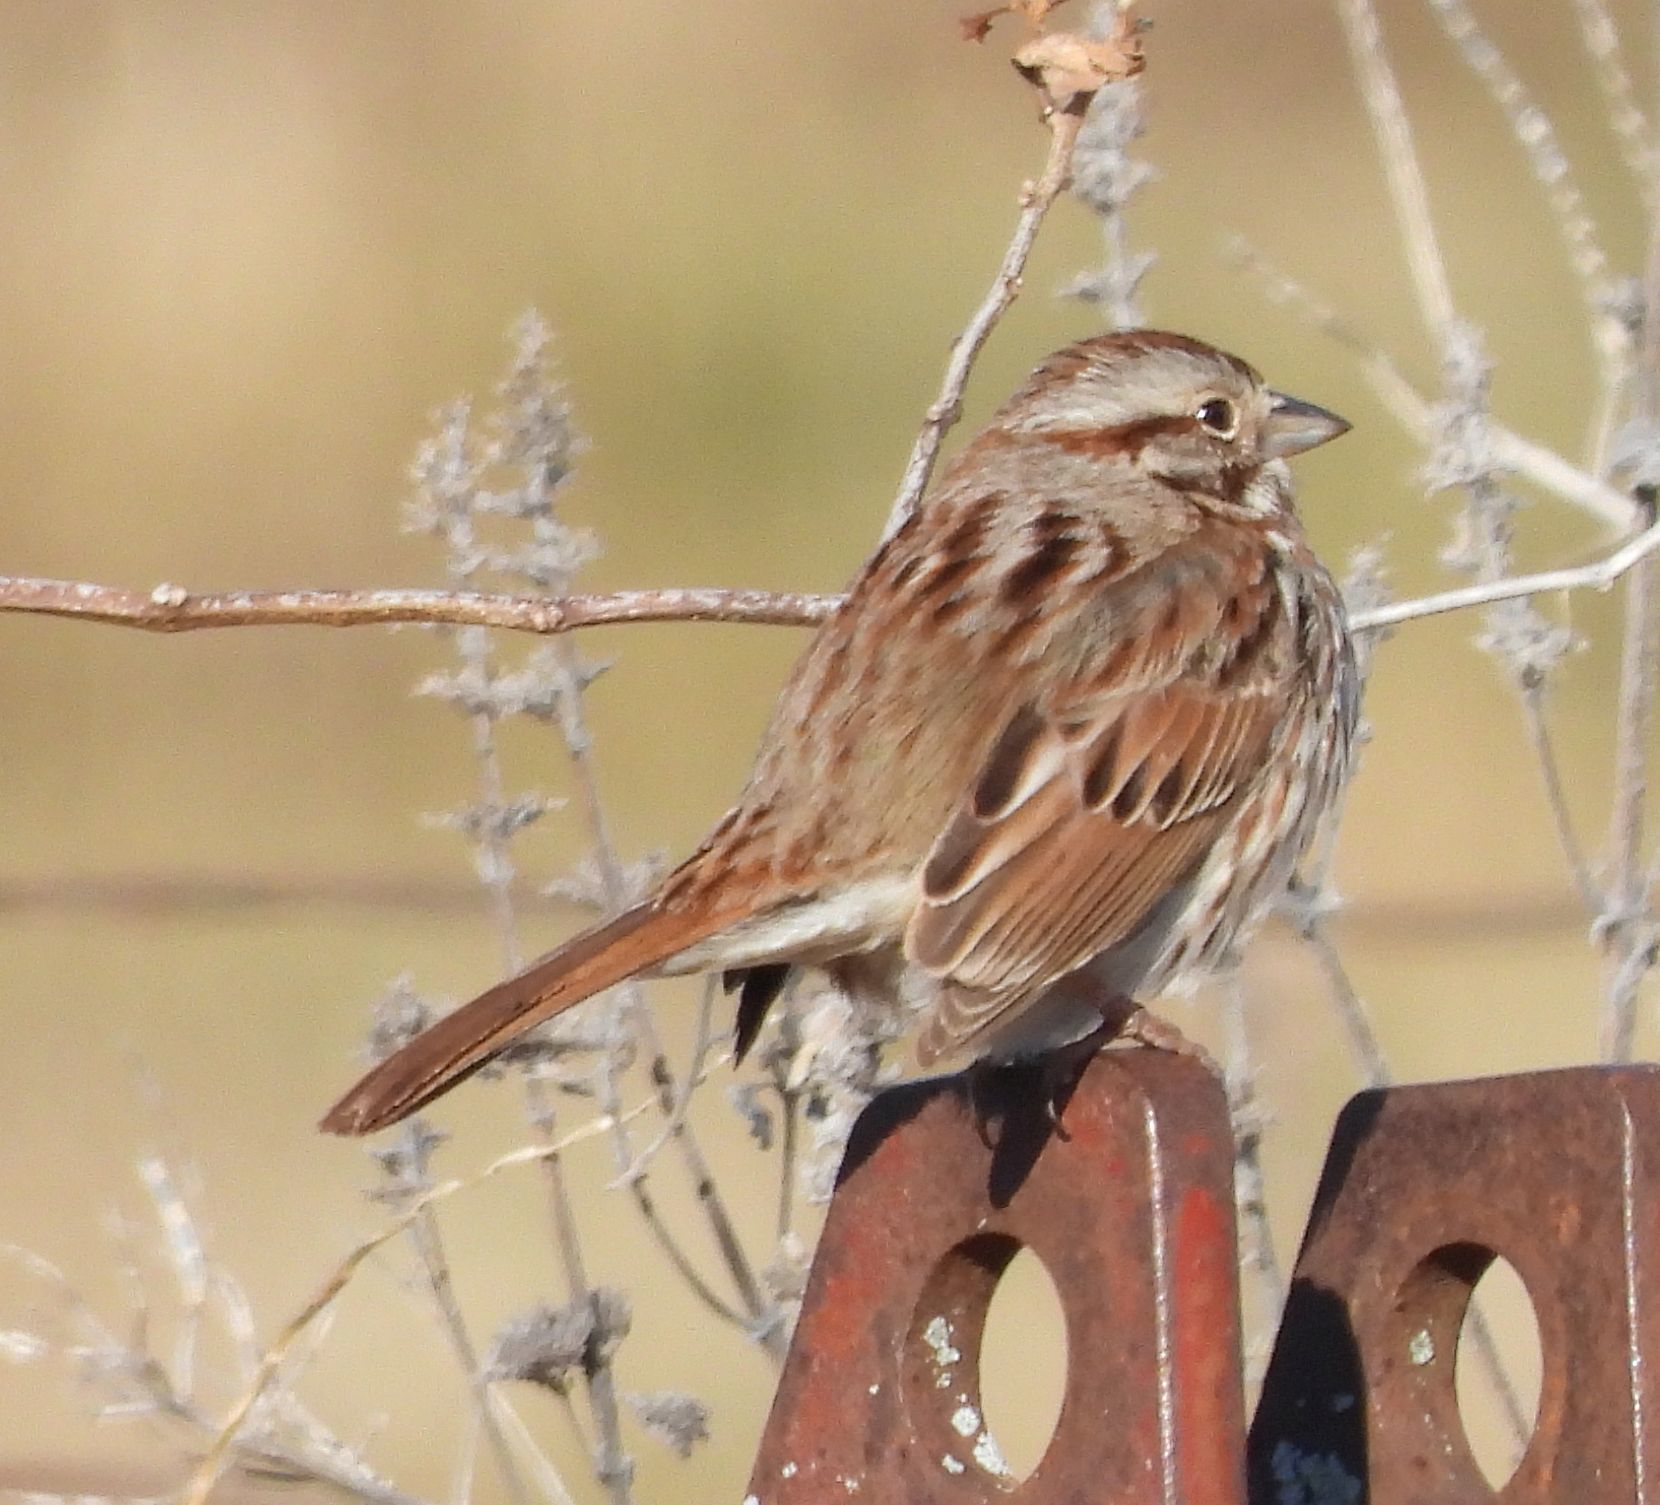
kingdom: Animalia
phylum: Chordata
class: Aves
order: Passeriformes
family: Passerellidae
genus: Melospiza
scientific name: Melospiza melodia
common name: Song sparrow
